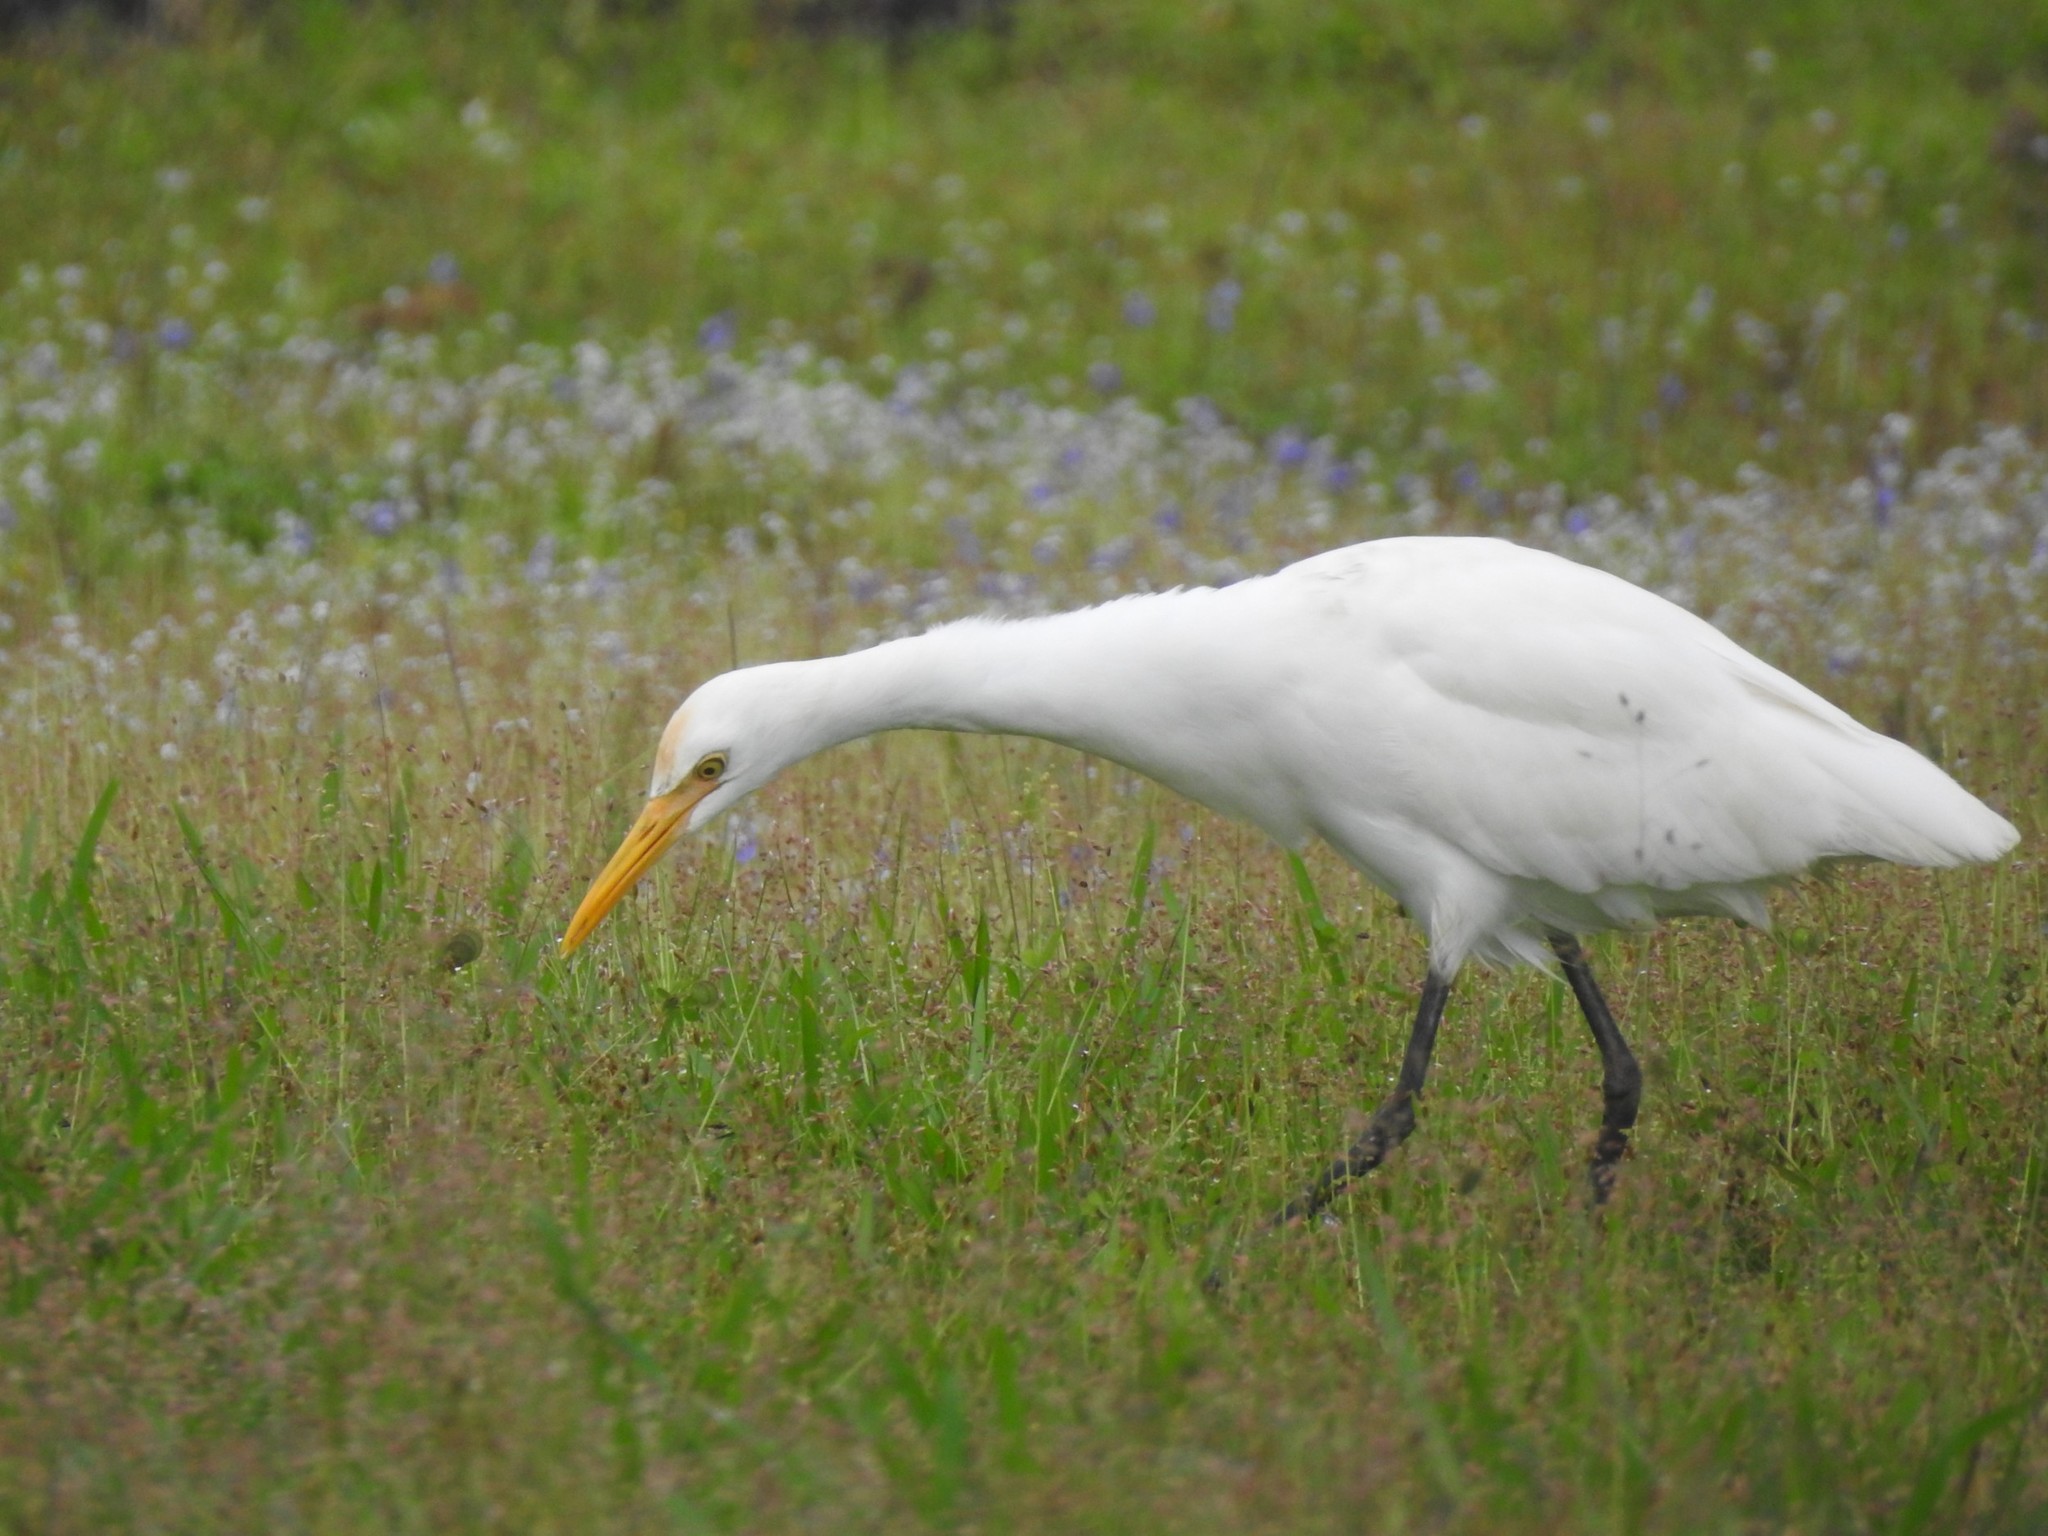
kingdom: Animalia
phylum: Chordata
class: Aves
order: Pelecaniformes
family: Ardeidae
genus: Bubulcus
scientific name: Bubulcus coromandus
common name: Eastern cattle egret
